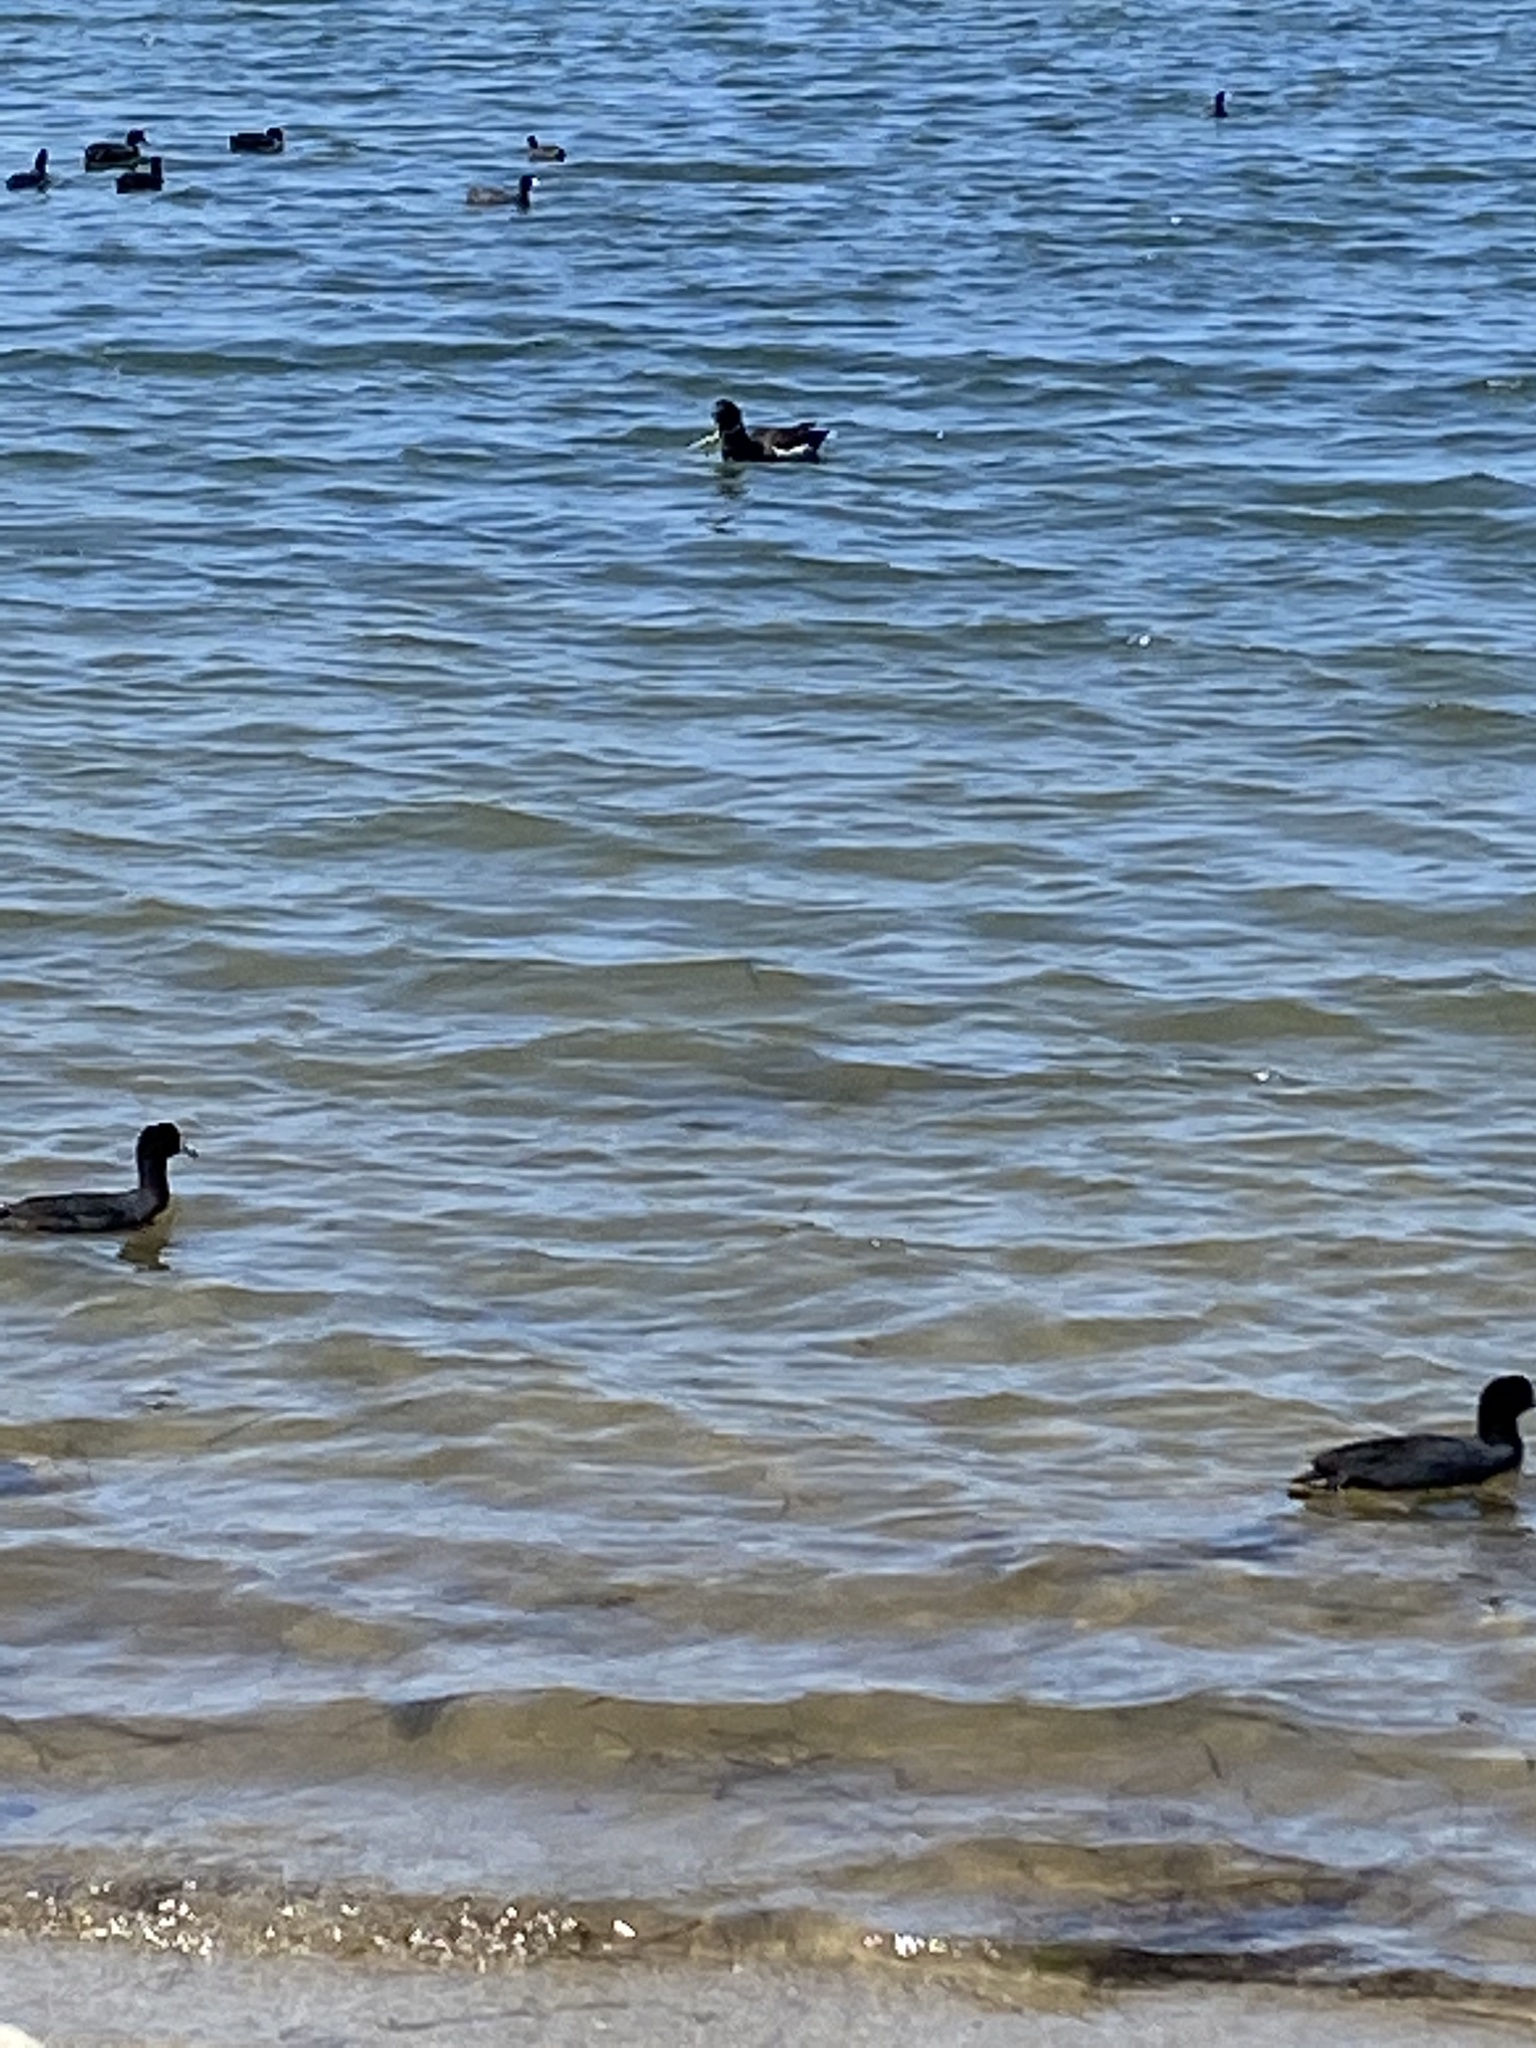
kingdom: Animalia
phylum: Chordata
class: Aves
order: Gruiformes
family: Rallidae
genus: Fulica
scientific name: Fulica americana
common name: American coot
